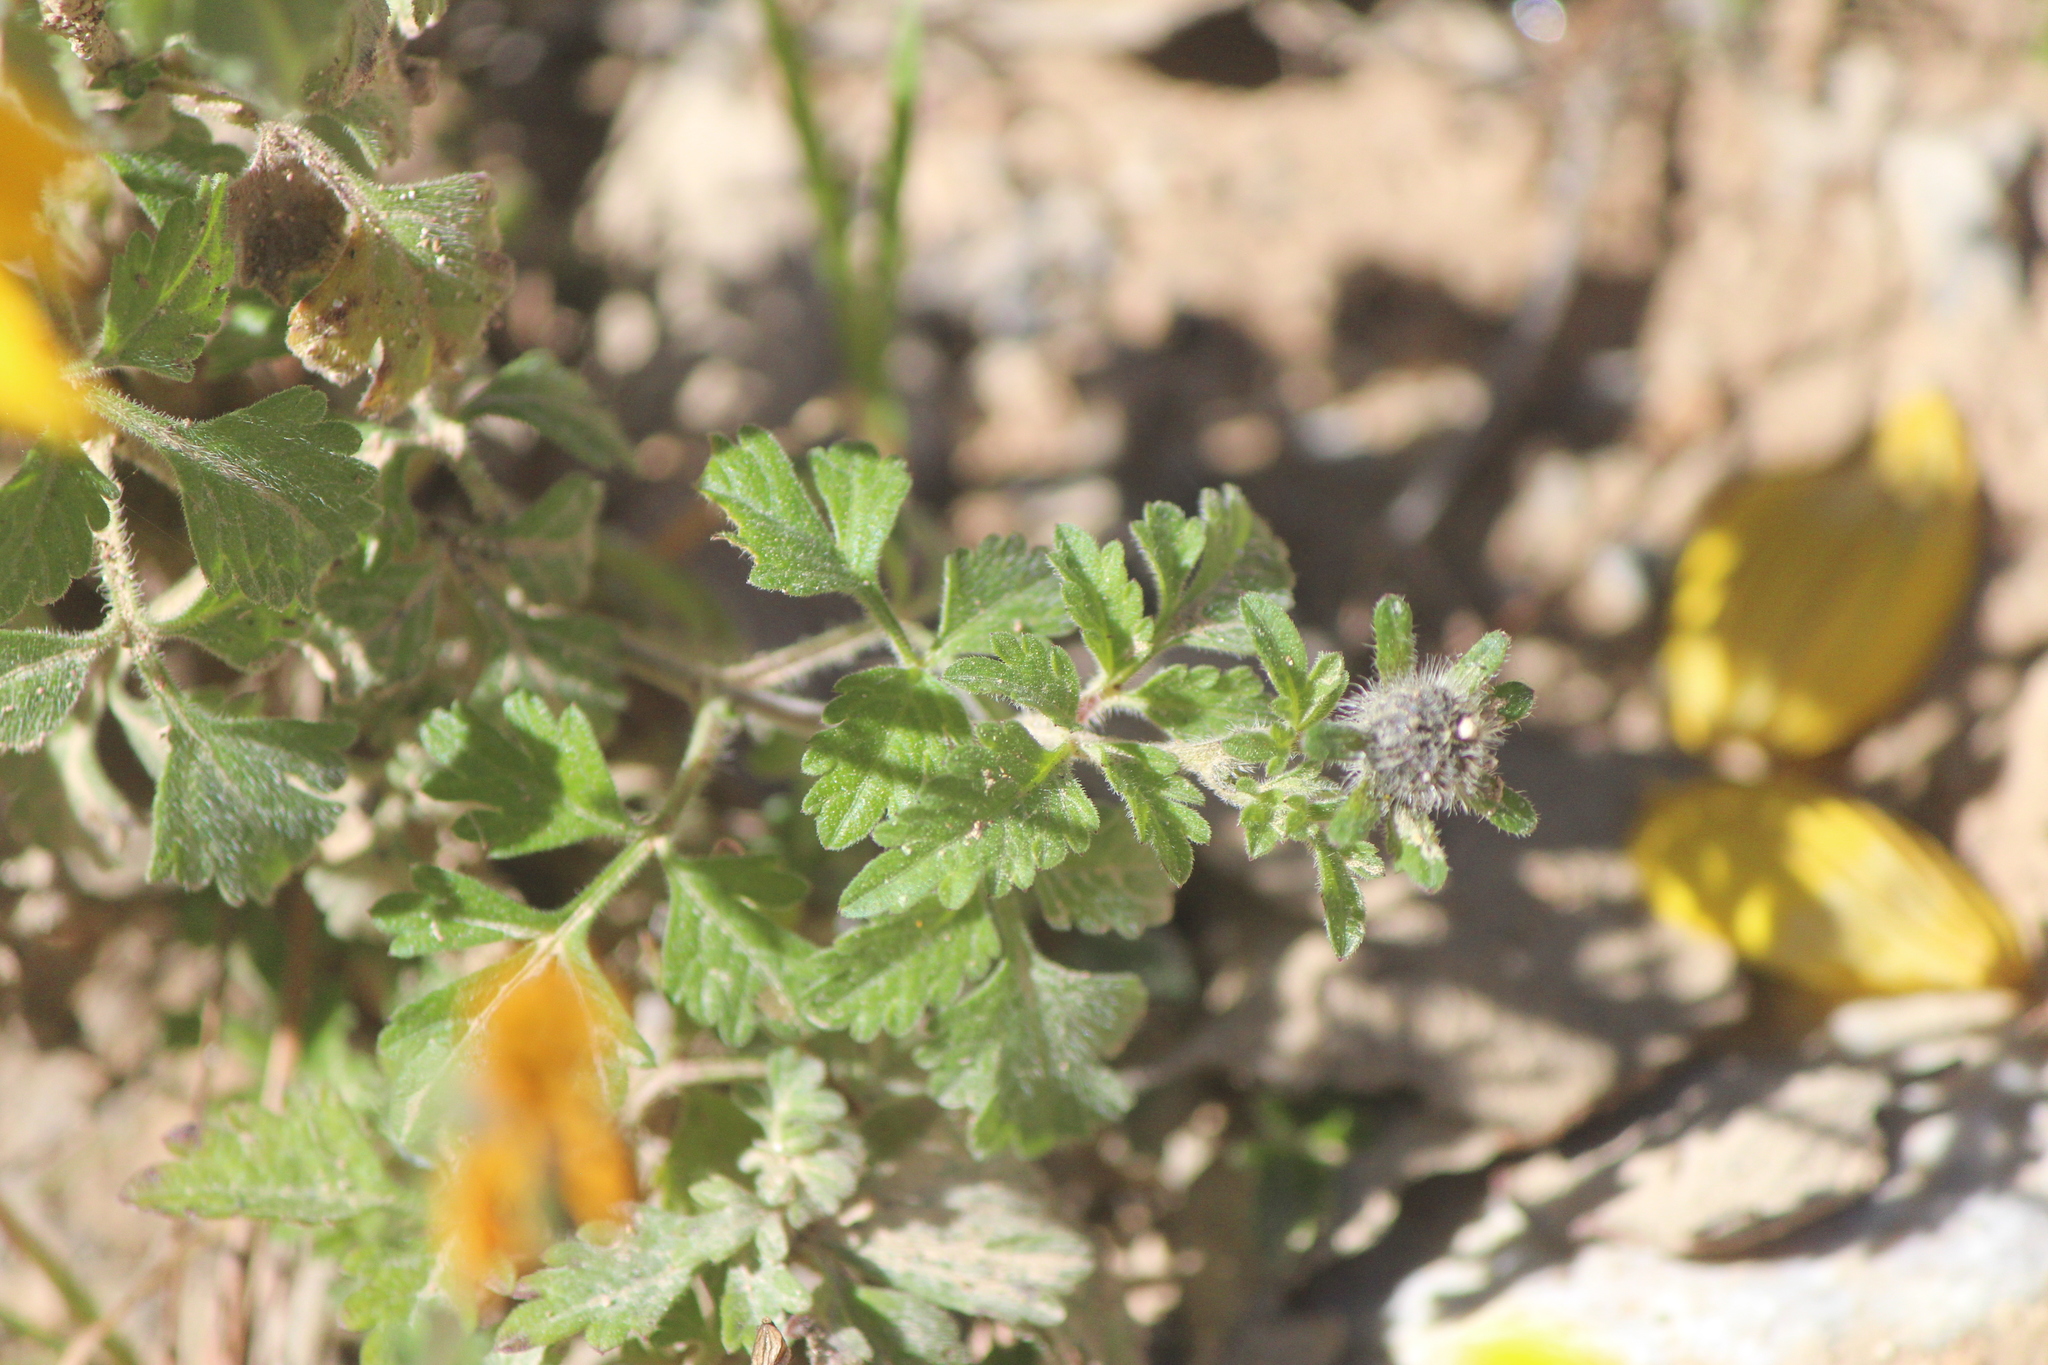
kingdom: Plantae
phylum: Tracheophyta
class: Magnoliopsida
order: Asterales
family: Asteraceae
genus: Bidens
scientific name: Bidens triplinervia
